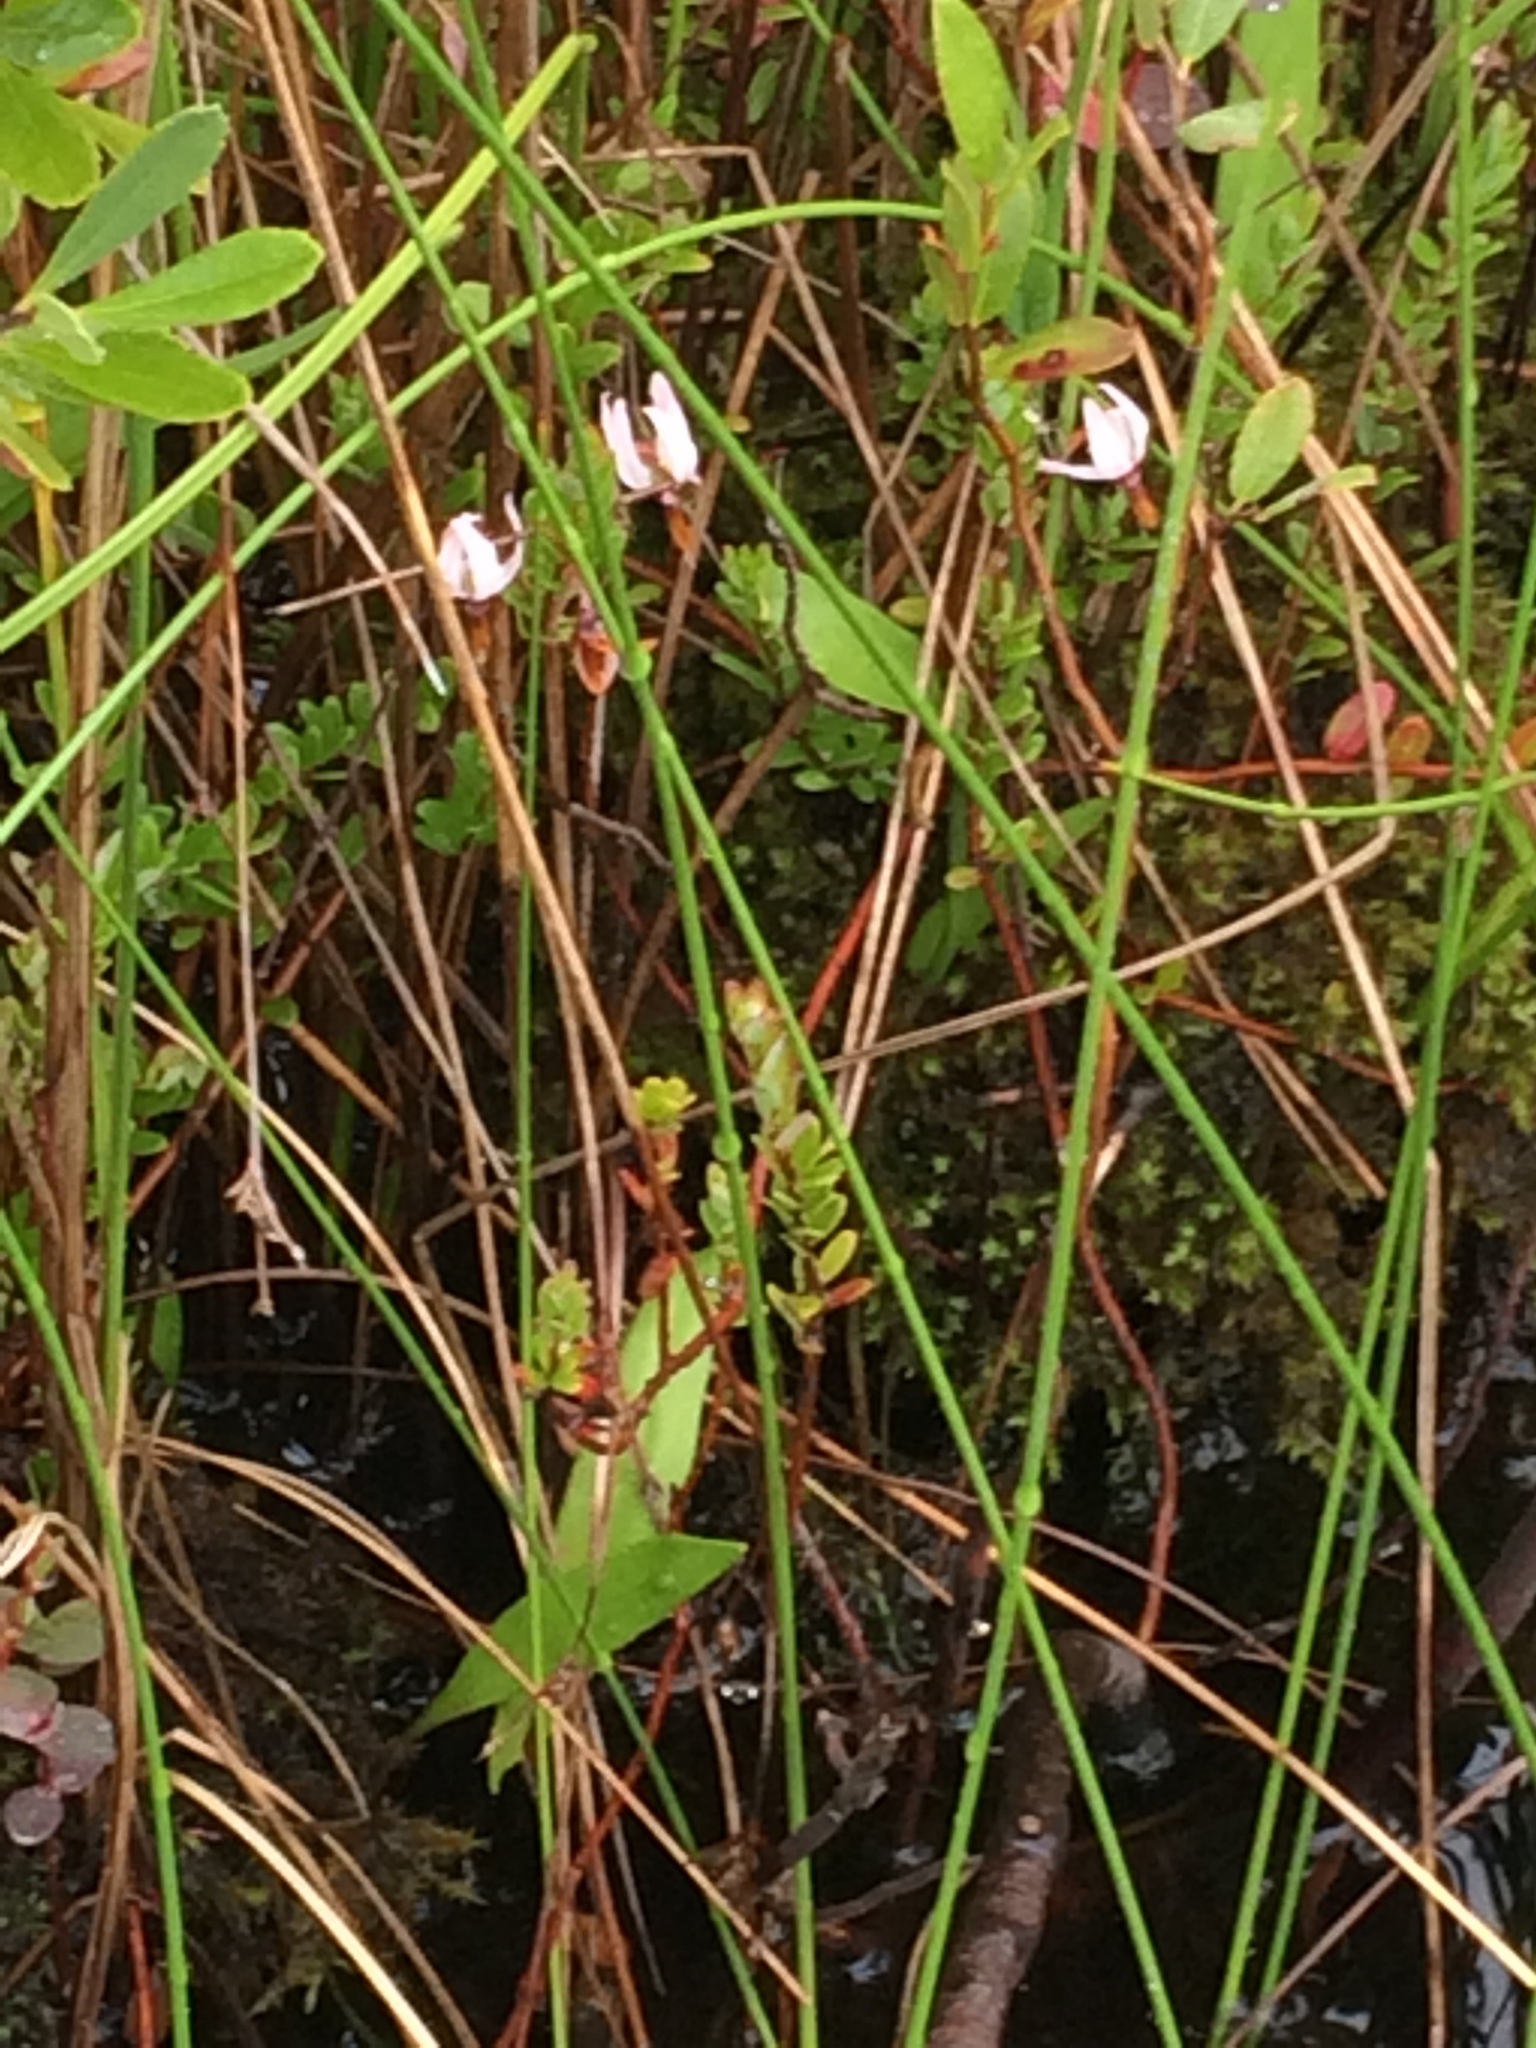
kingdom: Plantae
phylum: Tracheophyta
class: Magnoliopsida
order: Ericales
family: Ericaceae
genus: Vaccinium
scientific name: Vaccinium macrocarpon
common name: American cranberry
